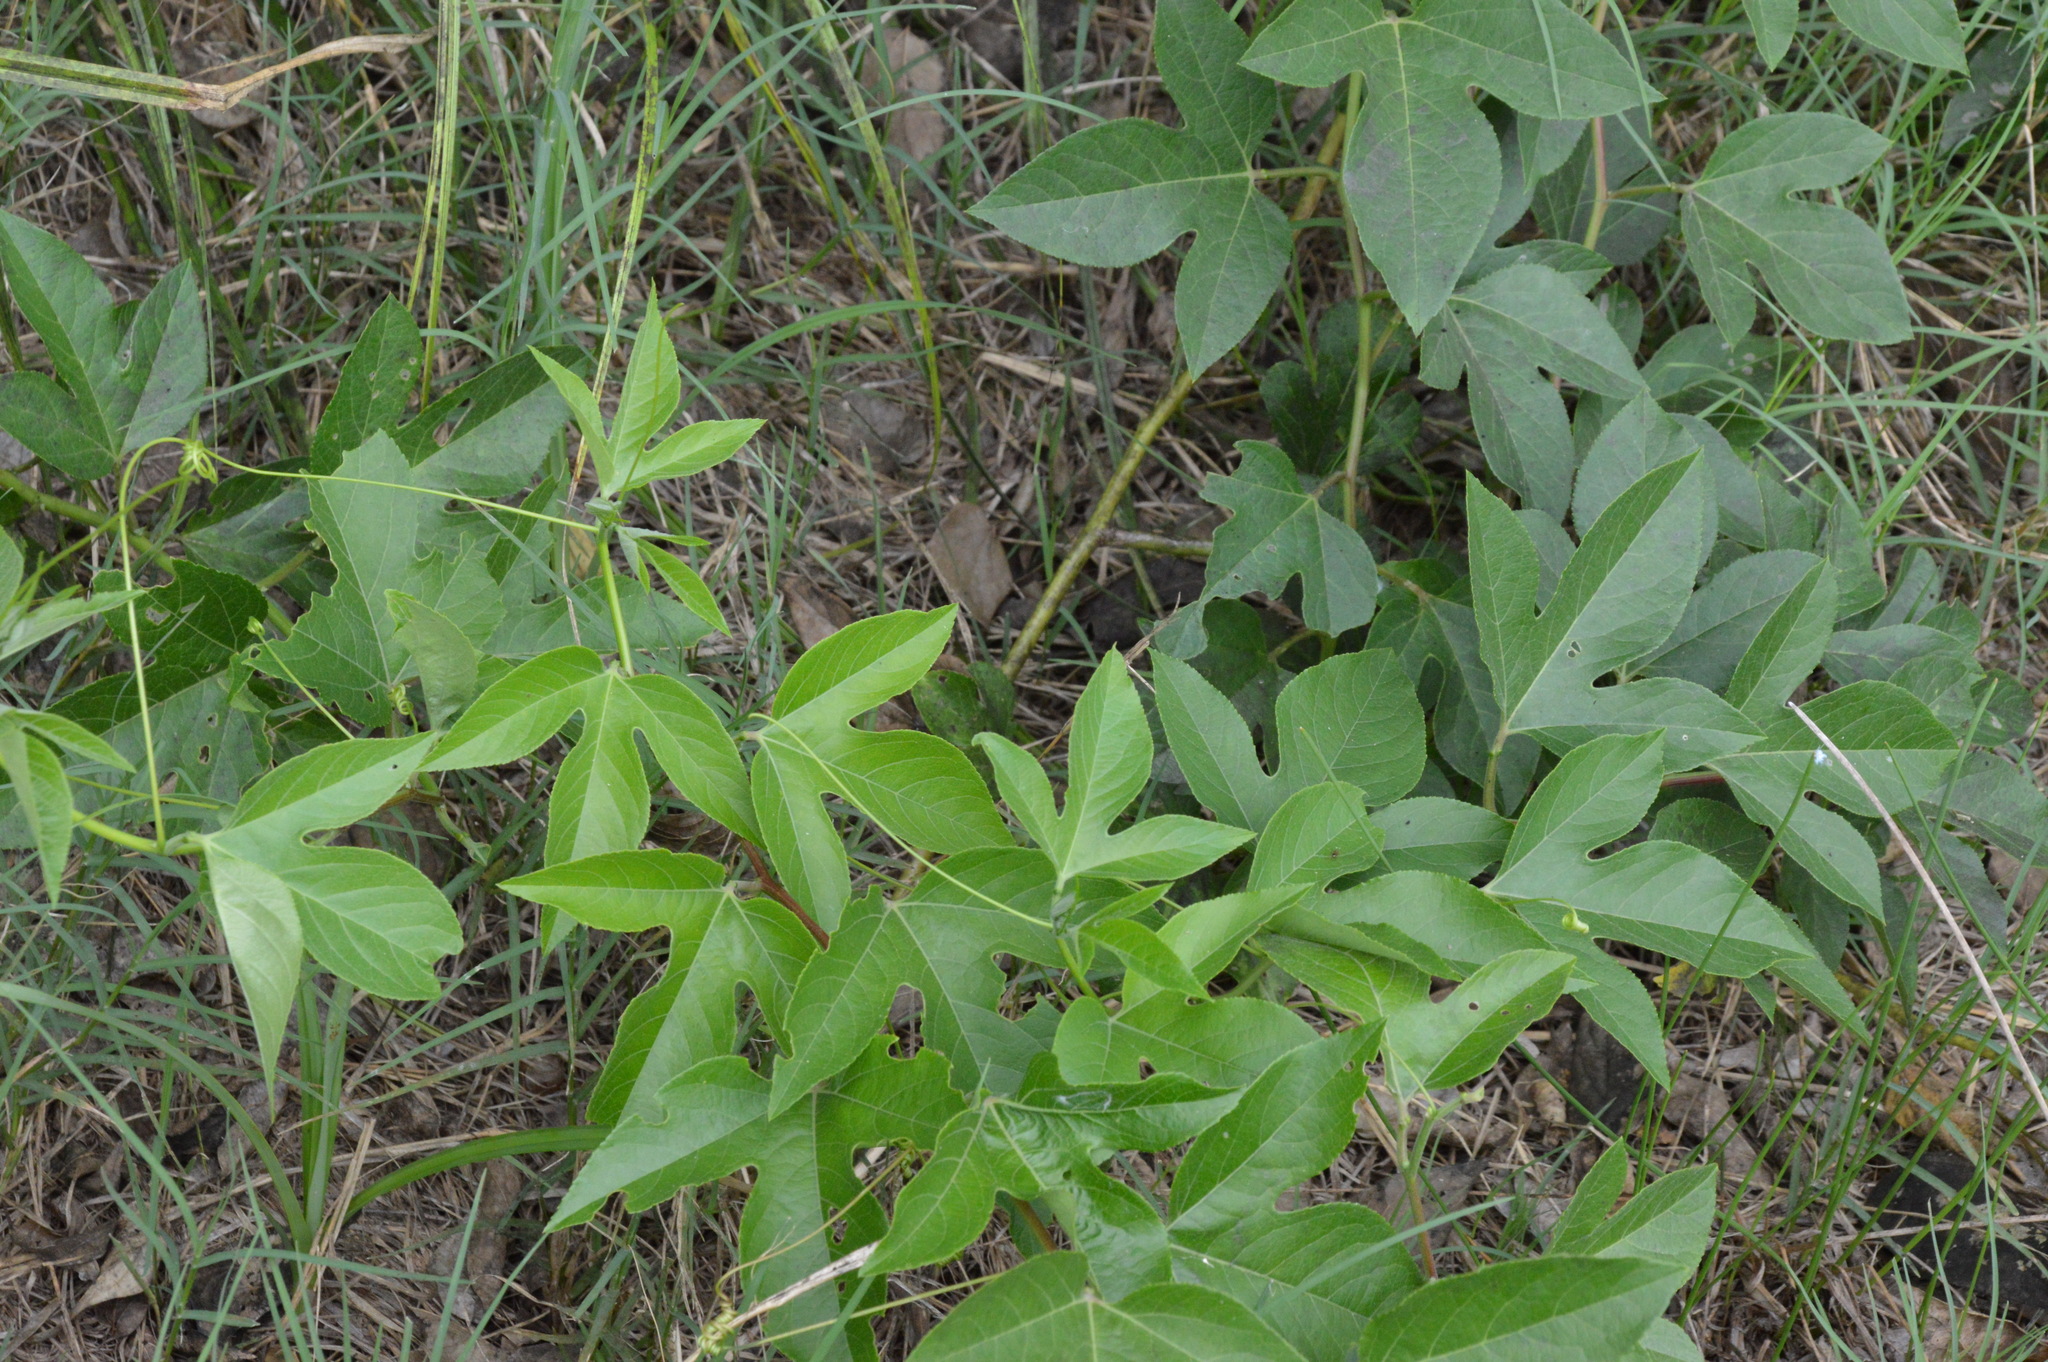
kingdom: Plantae
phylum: Tracheophyta
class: Magnoliopsida
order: Malpighiales
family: Passifloraceae
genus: Passiflora
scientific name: Passiflora incarnata
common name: Apricot-vine
